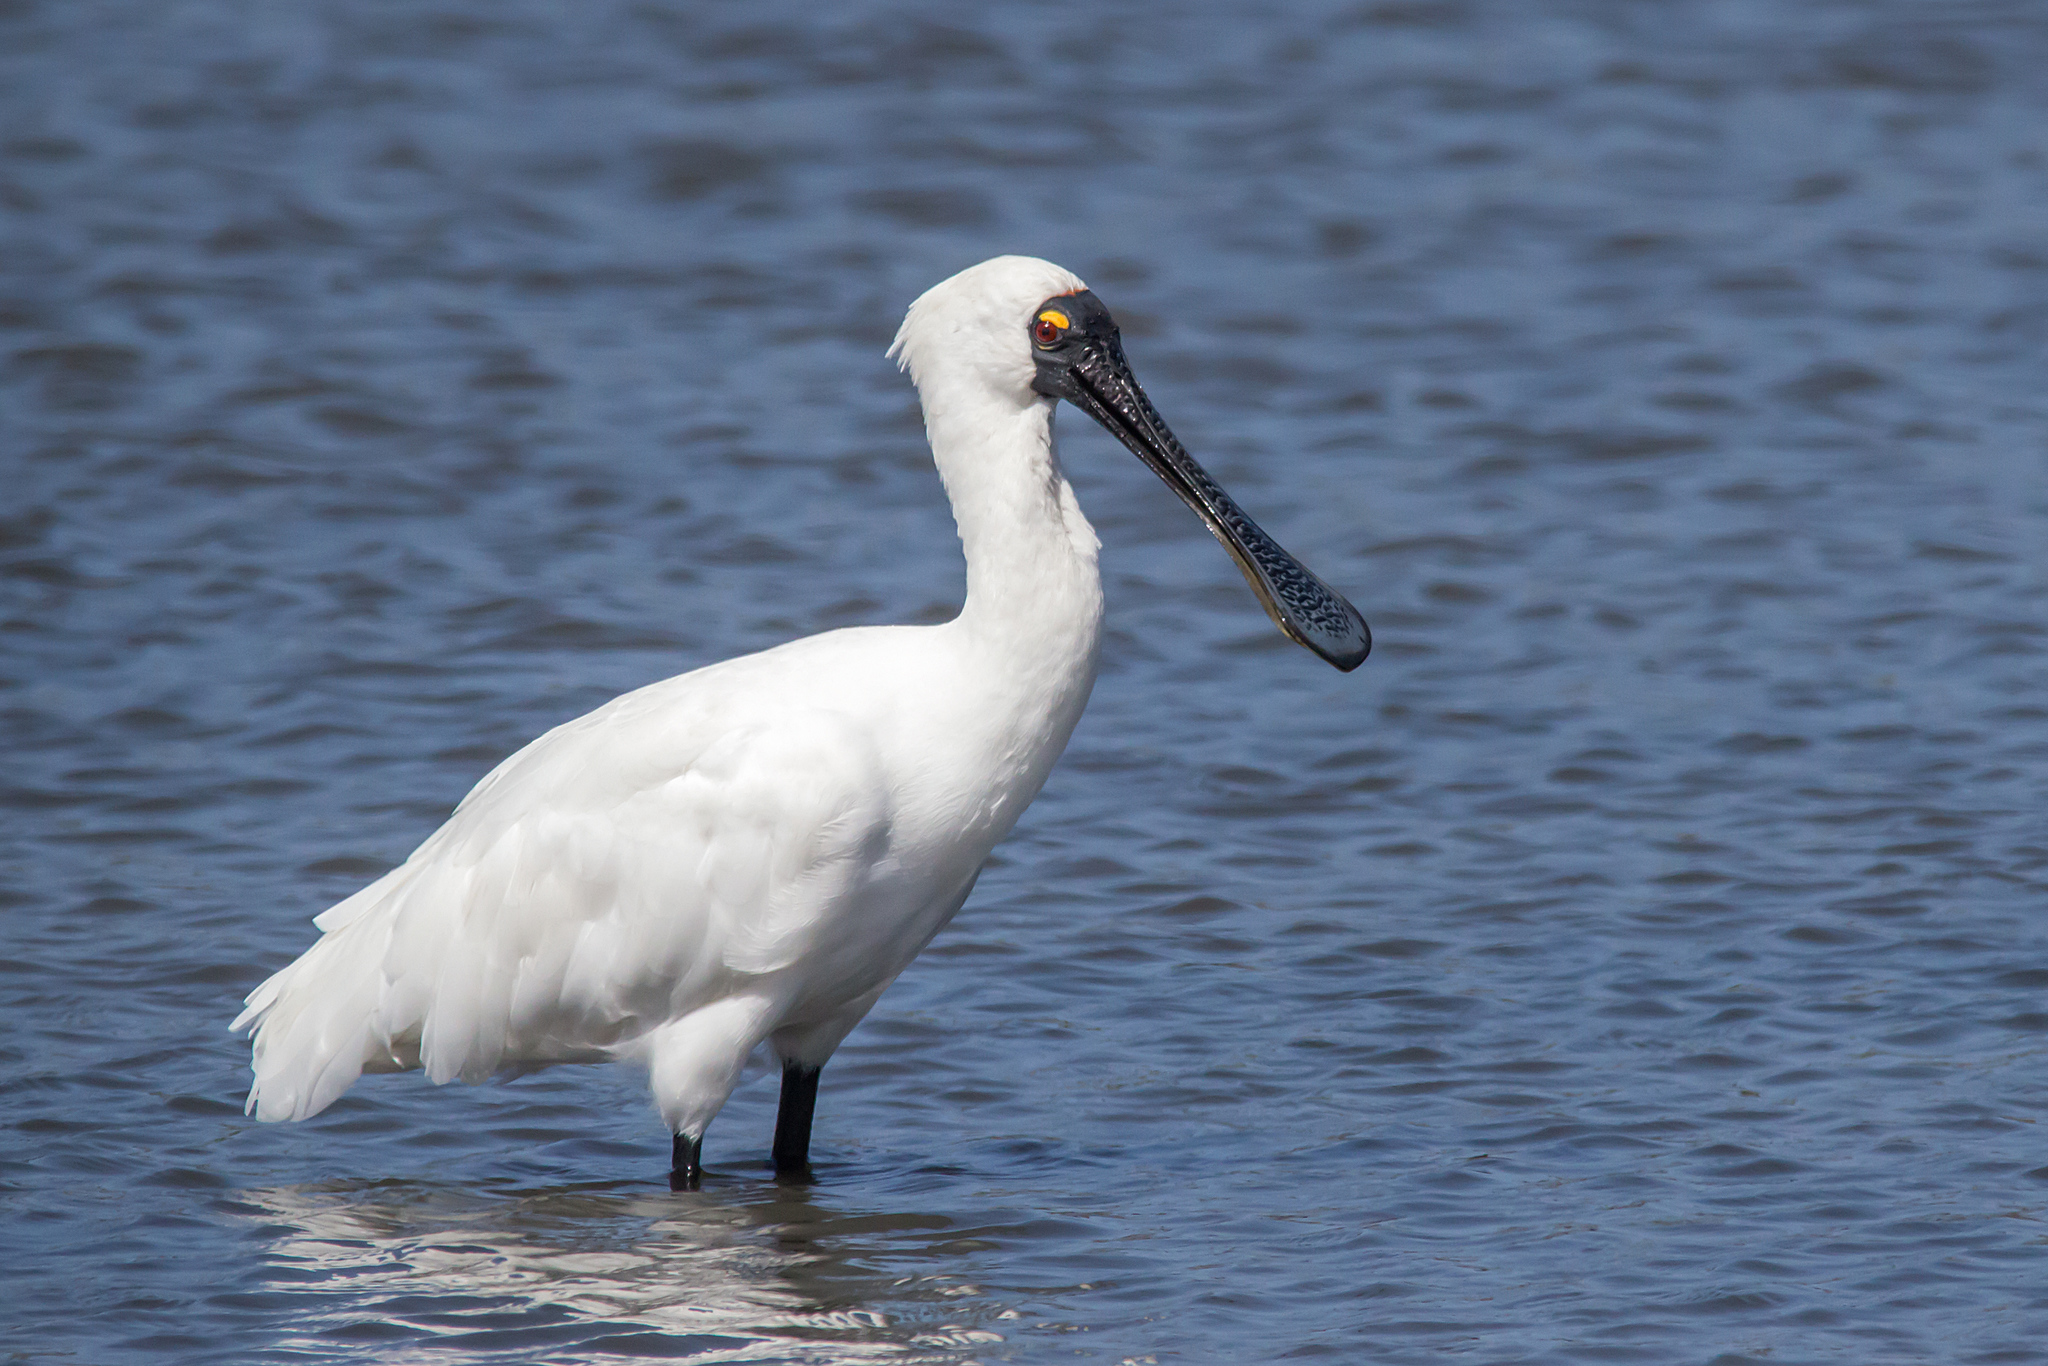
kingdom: Animalia
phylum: Chordata
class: Aves
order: Pelecaniformes
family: Threskiornithidae
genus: Platalea
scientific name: Platalea regia
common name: Royal spoonbill
